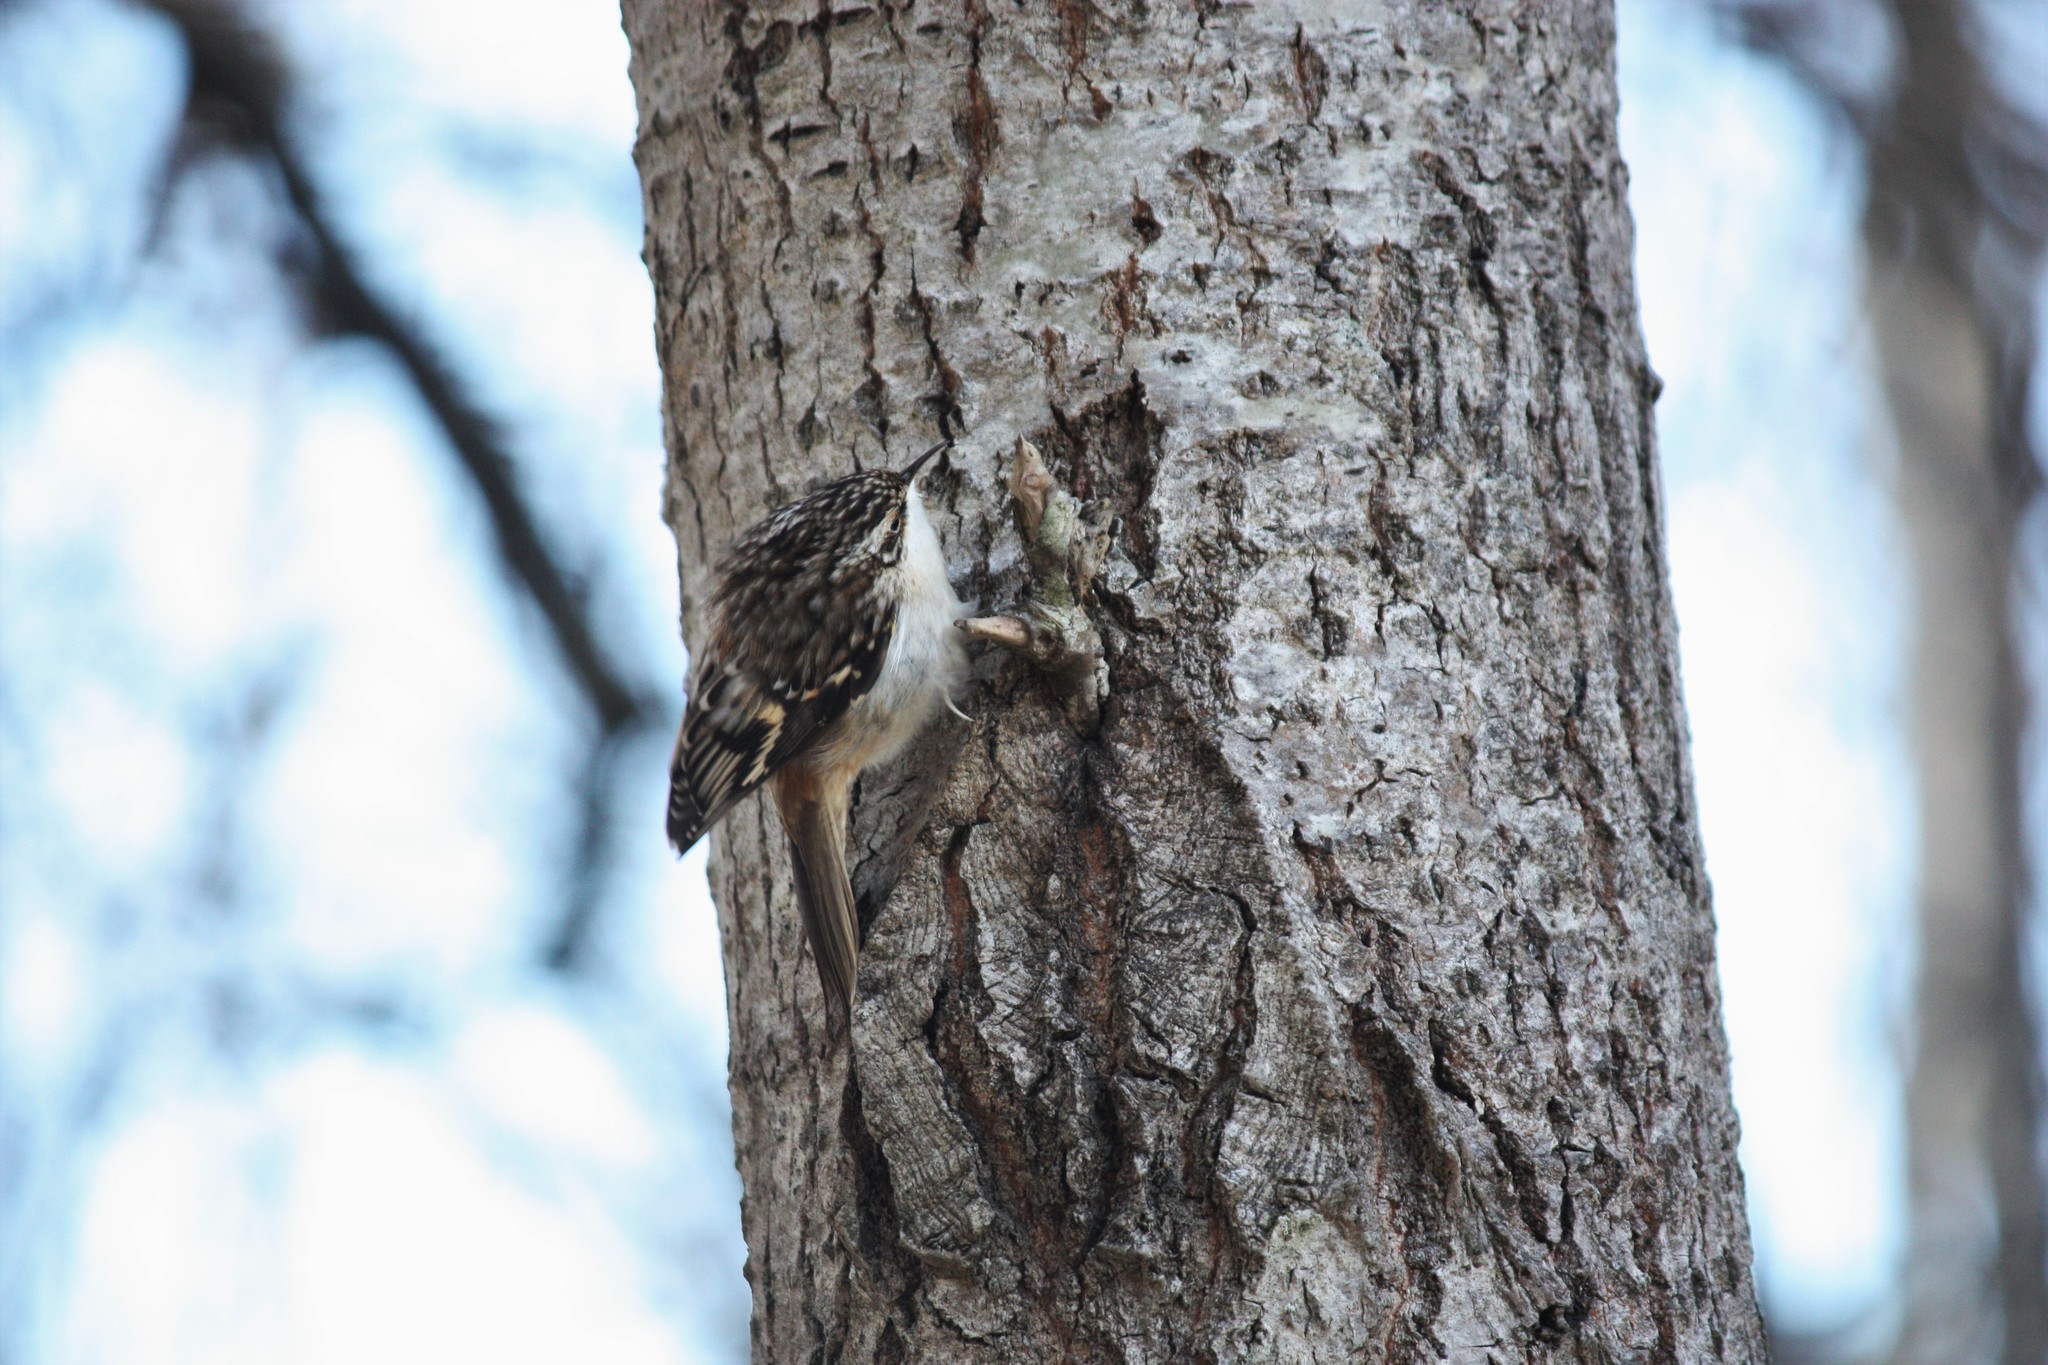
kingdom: Animalia
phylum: Chordata
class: Aves
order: Passeriformes
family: Certhiidae
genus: Certhia
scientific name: Certhia americana
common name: Brown creeper
